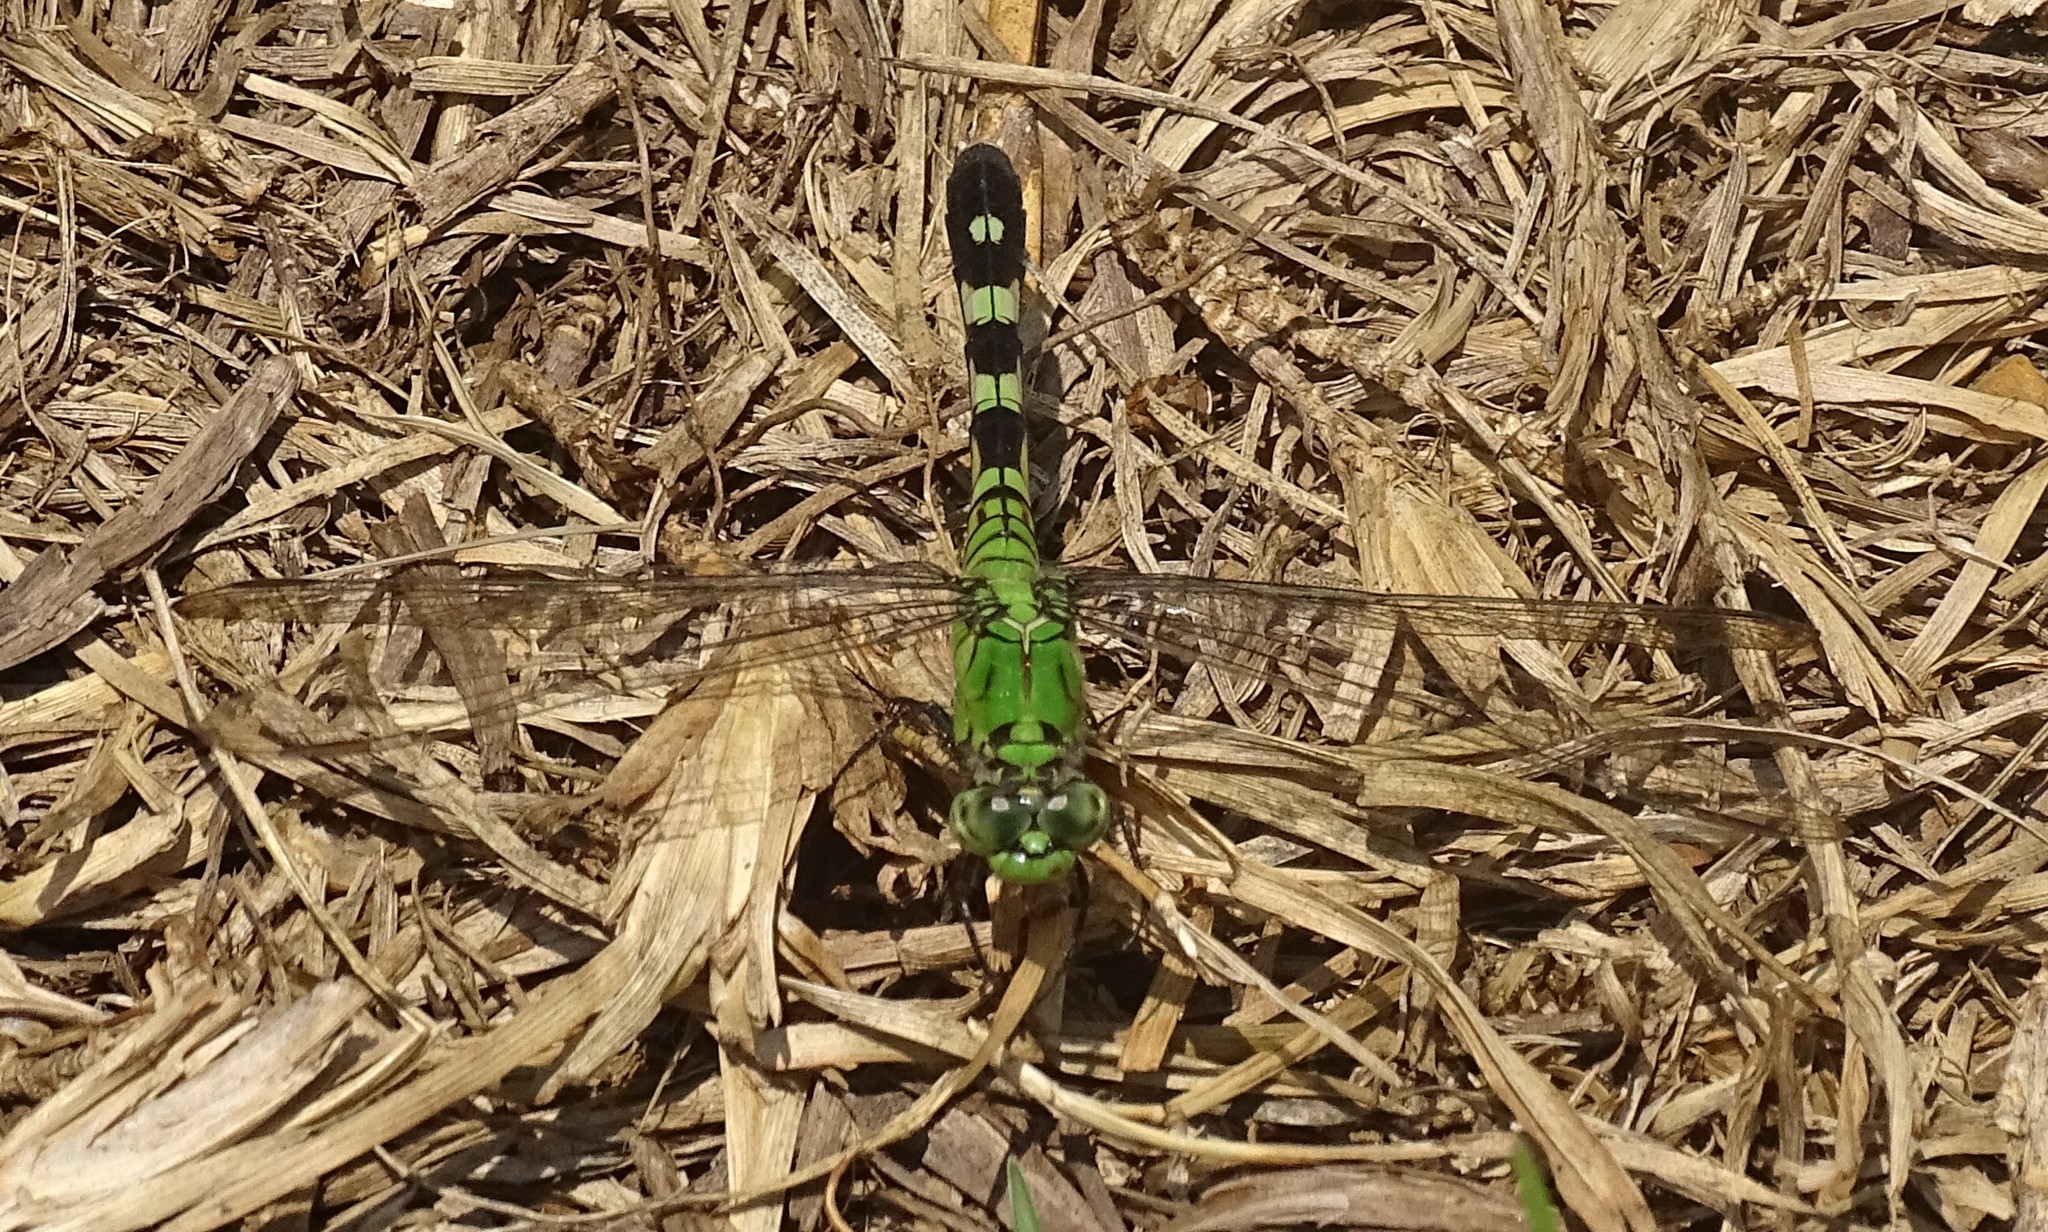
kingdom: Animalia
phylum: Arthropoda
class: Insecta
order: Odonata
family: Libellulidae
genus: Erythemis
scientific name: Erythemis simplicicollis
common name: Eastern pondhawk
